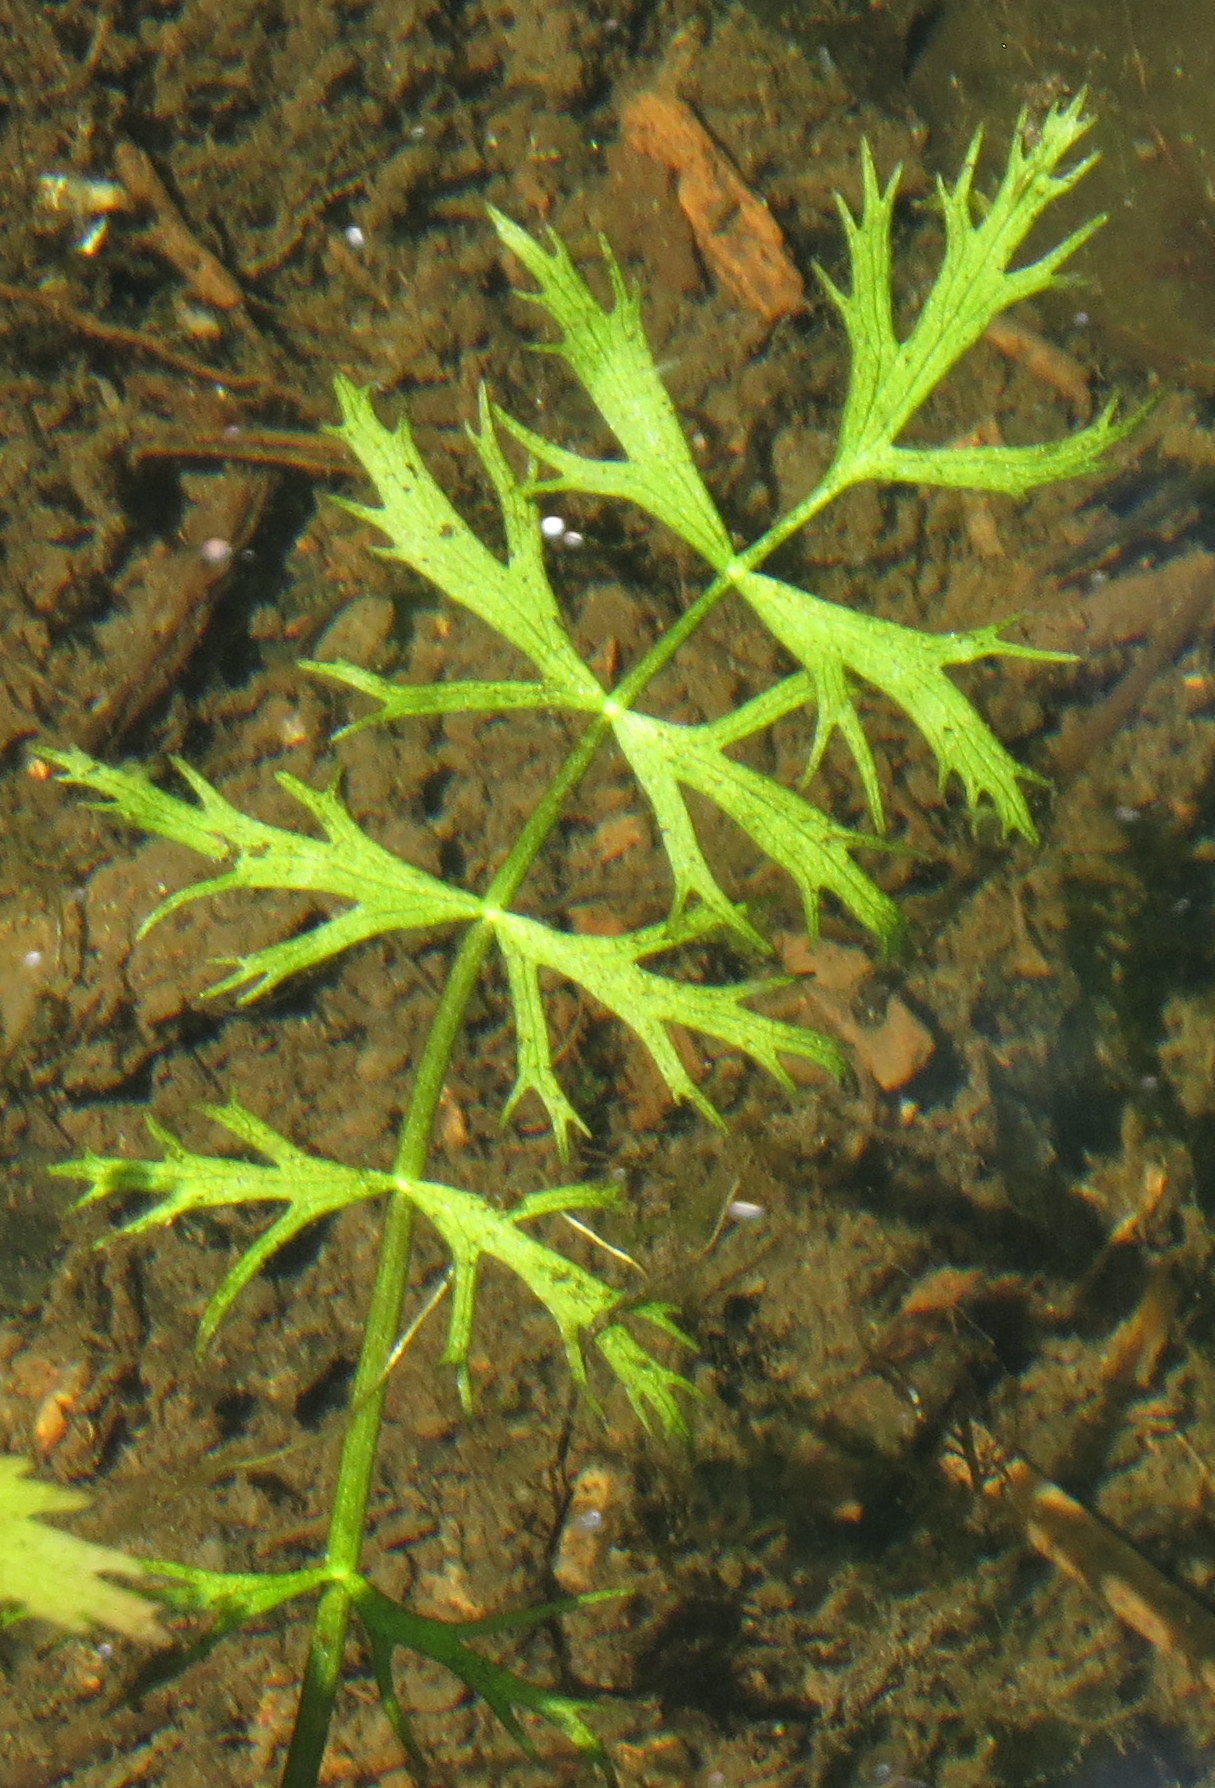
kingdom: Plantae
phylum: Tracheophyta
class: Magnoliopsida
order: Apiales
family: Apiaceae
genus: Sium
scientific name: Sium suave
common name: Hemlock water-parsnip
